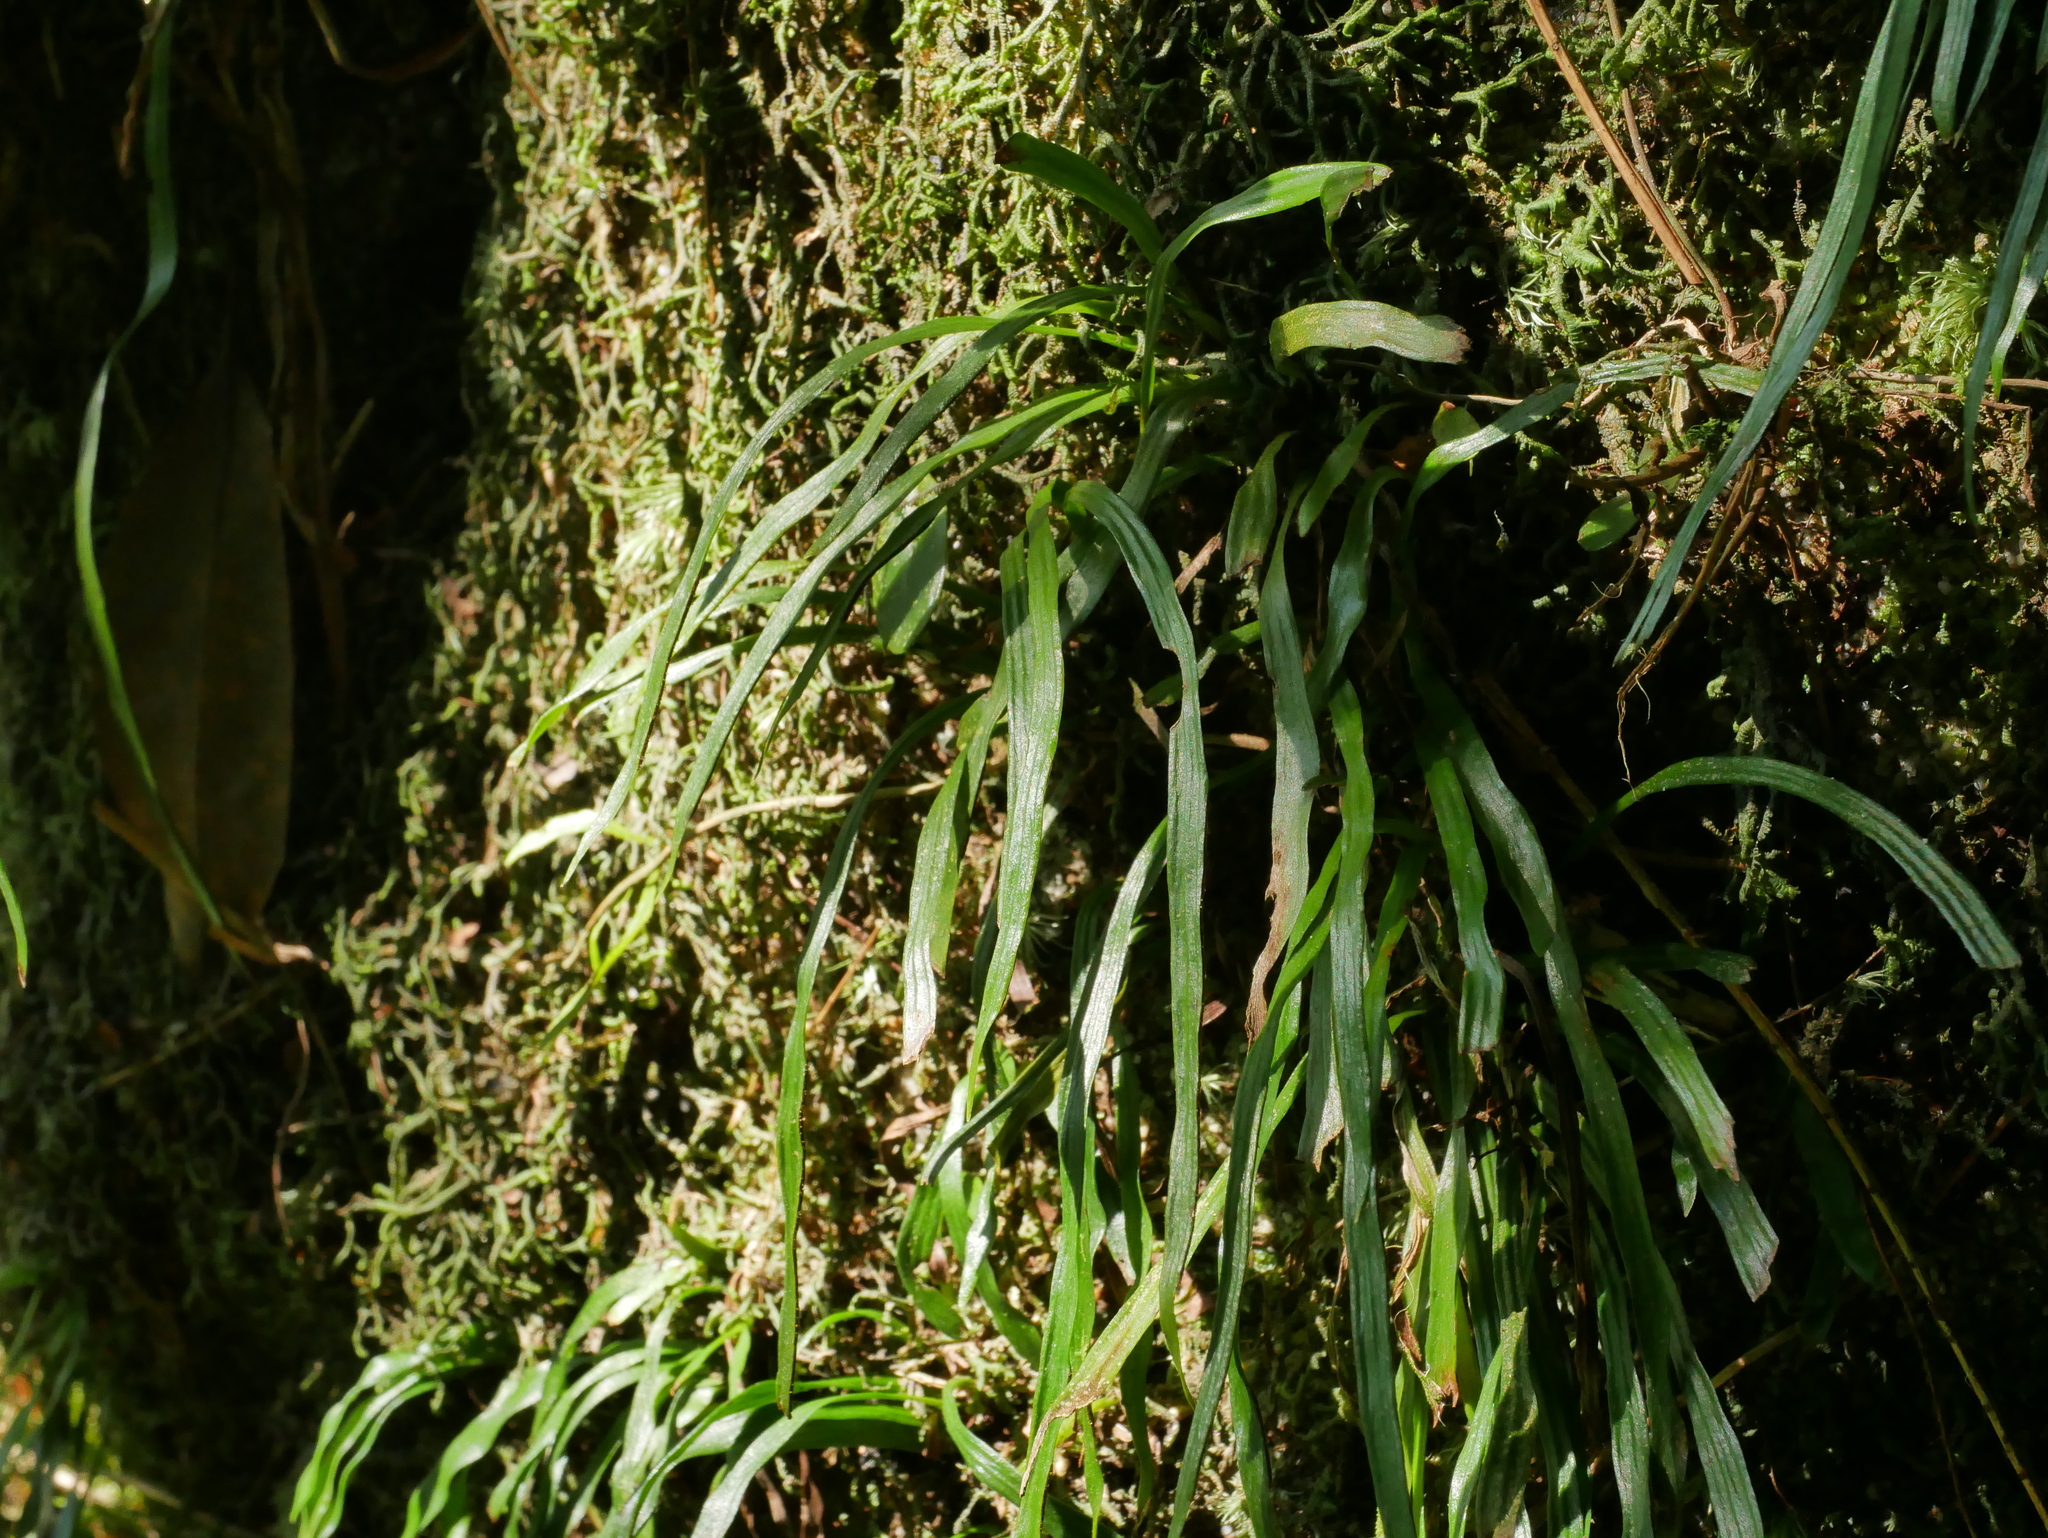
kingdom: Plantae
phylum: Tracheophyta
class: Polypodiopsida
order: Polypodiales
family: Pteridaceae
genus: Haplopteris
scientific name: Haplopteris elongata
